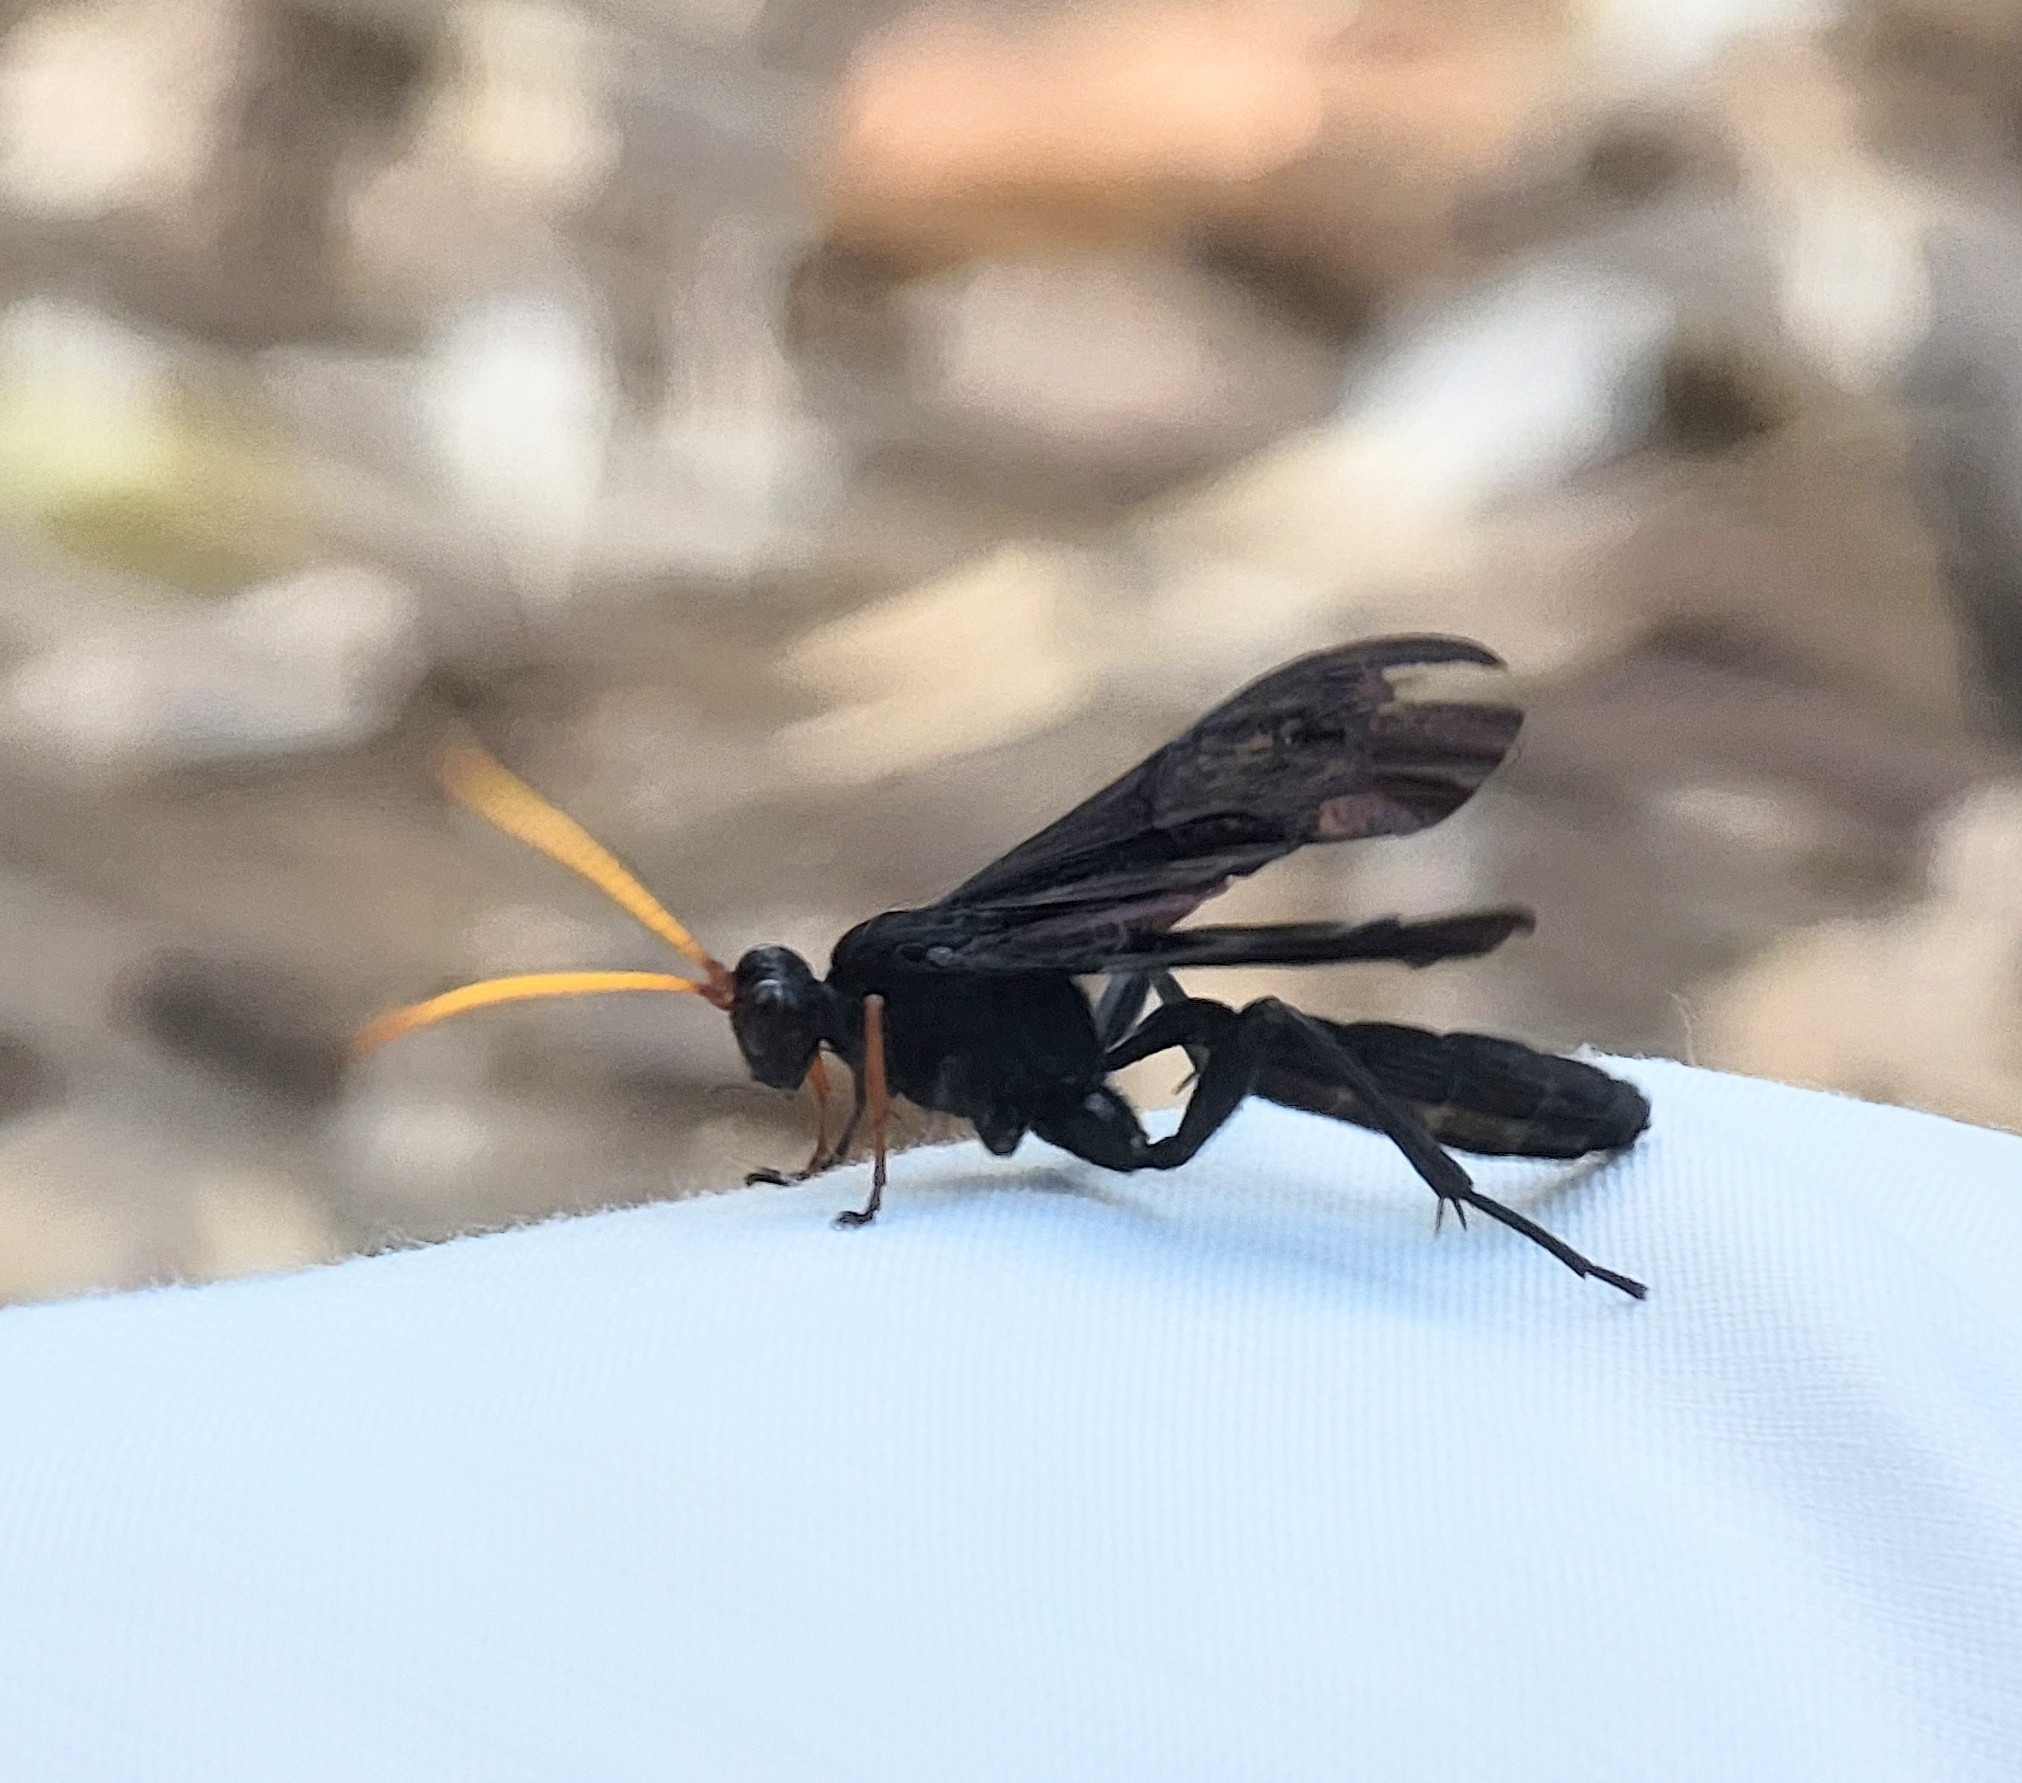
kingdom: Animalia
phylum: Arthropoda
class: Insecta
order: Hymenoptera
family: Ichneumonidae
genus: Gnamptopelta
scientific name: Gnamptopelta obsidianator
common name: Bent-shielded besieger wasp
